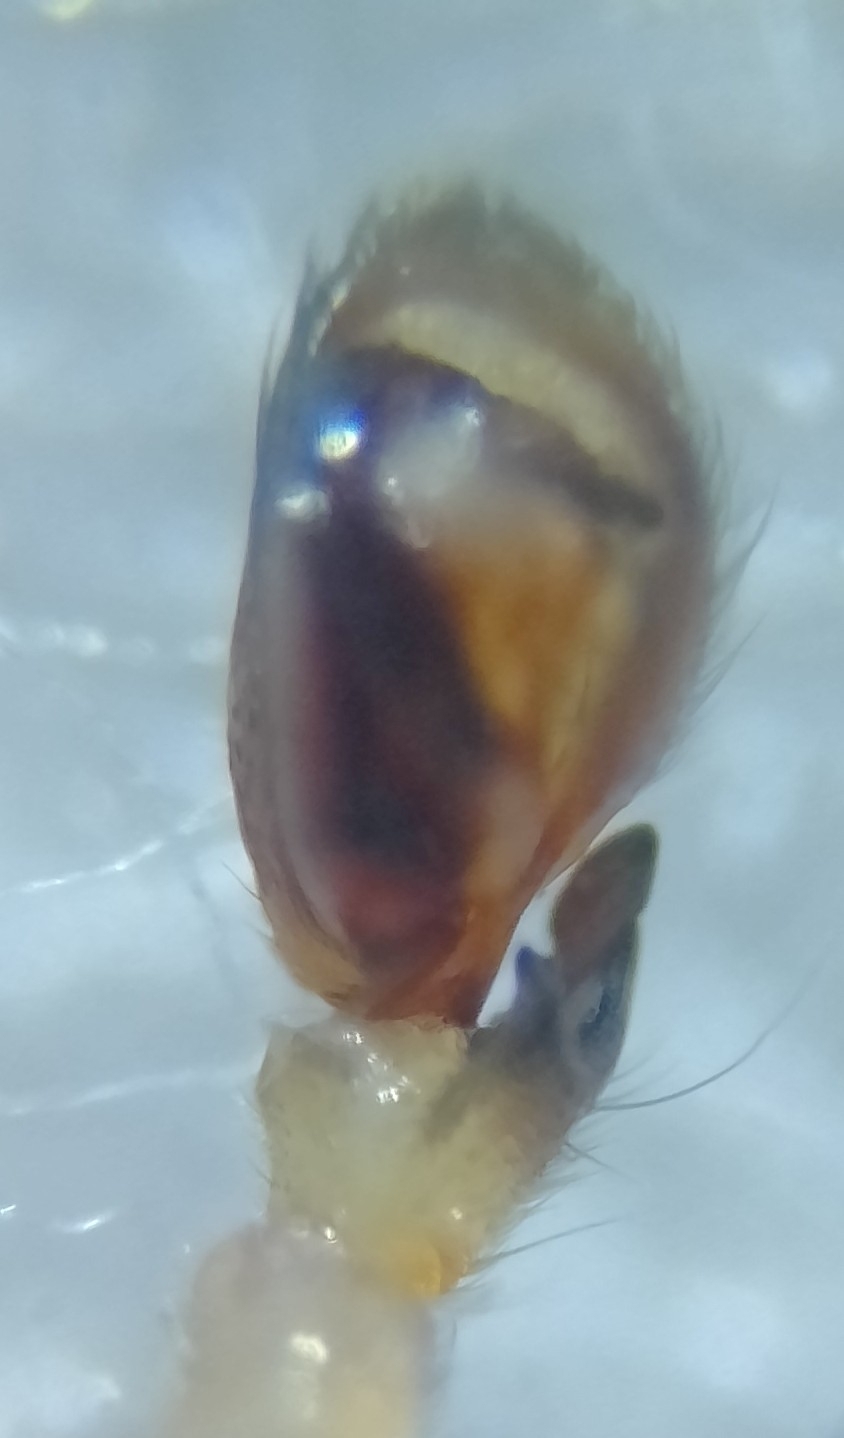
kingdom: Animalia
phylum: Arthropoda
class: Arachnida
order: Araneae
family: Clubionidae
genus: Clubiona
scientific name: Clubiona lutescens
